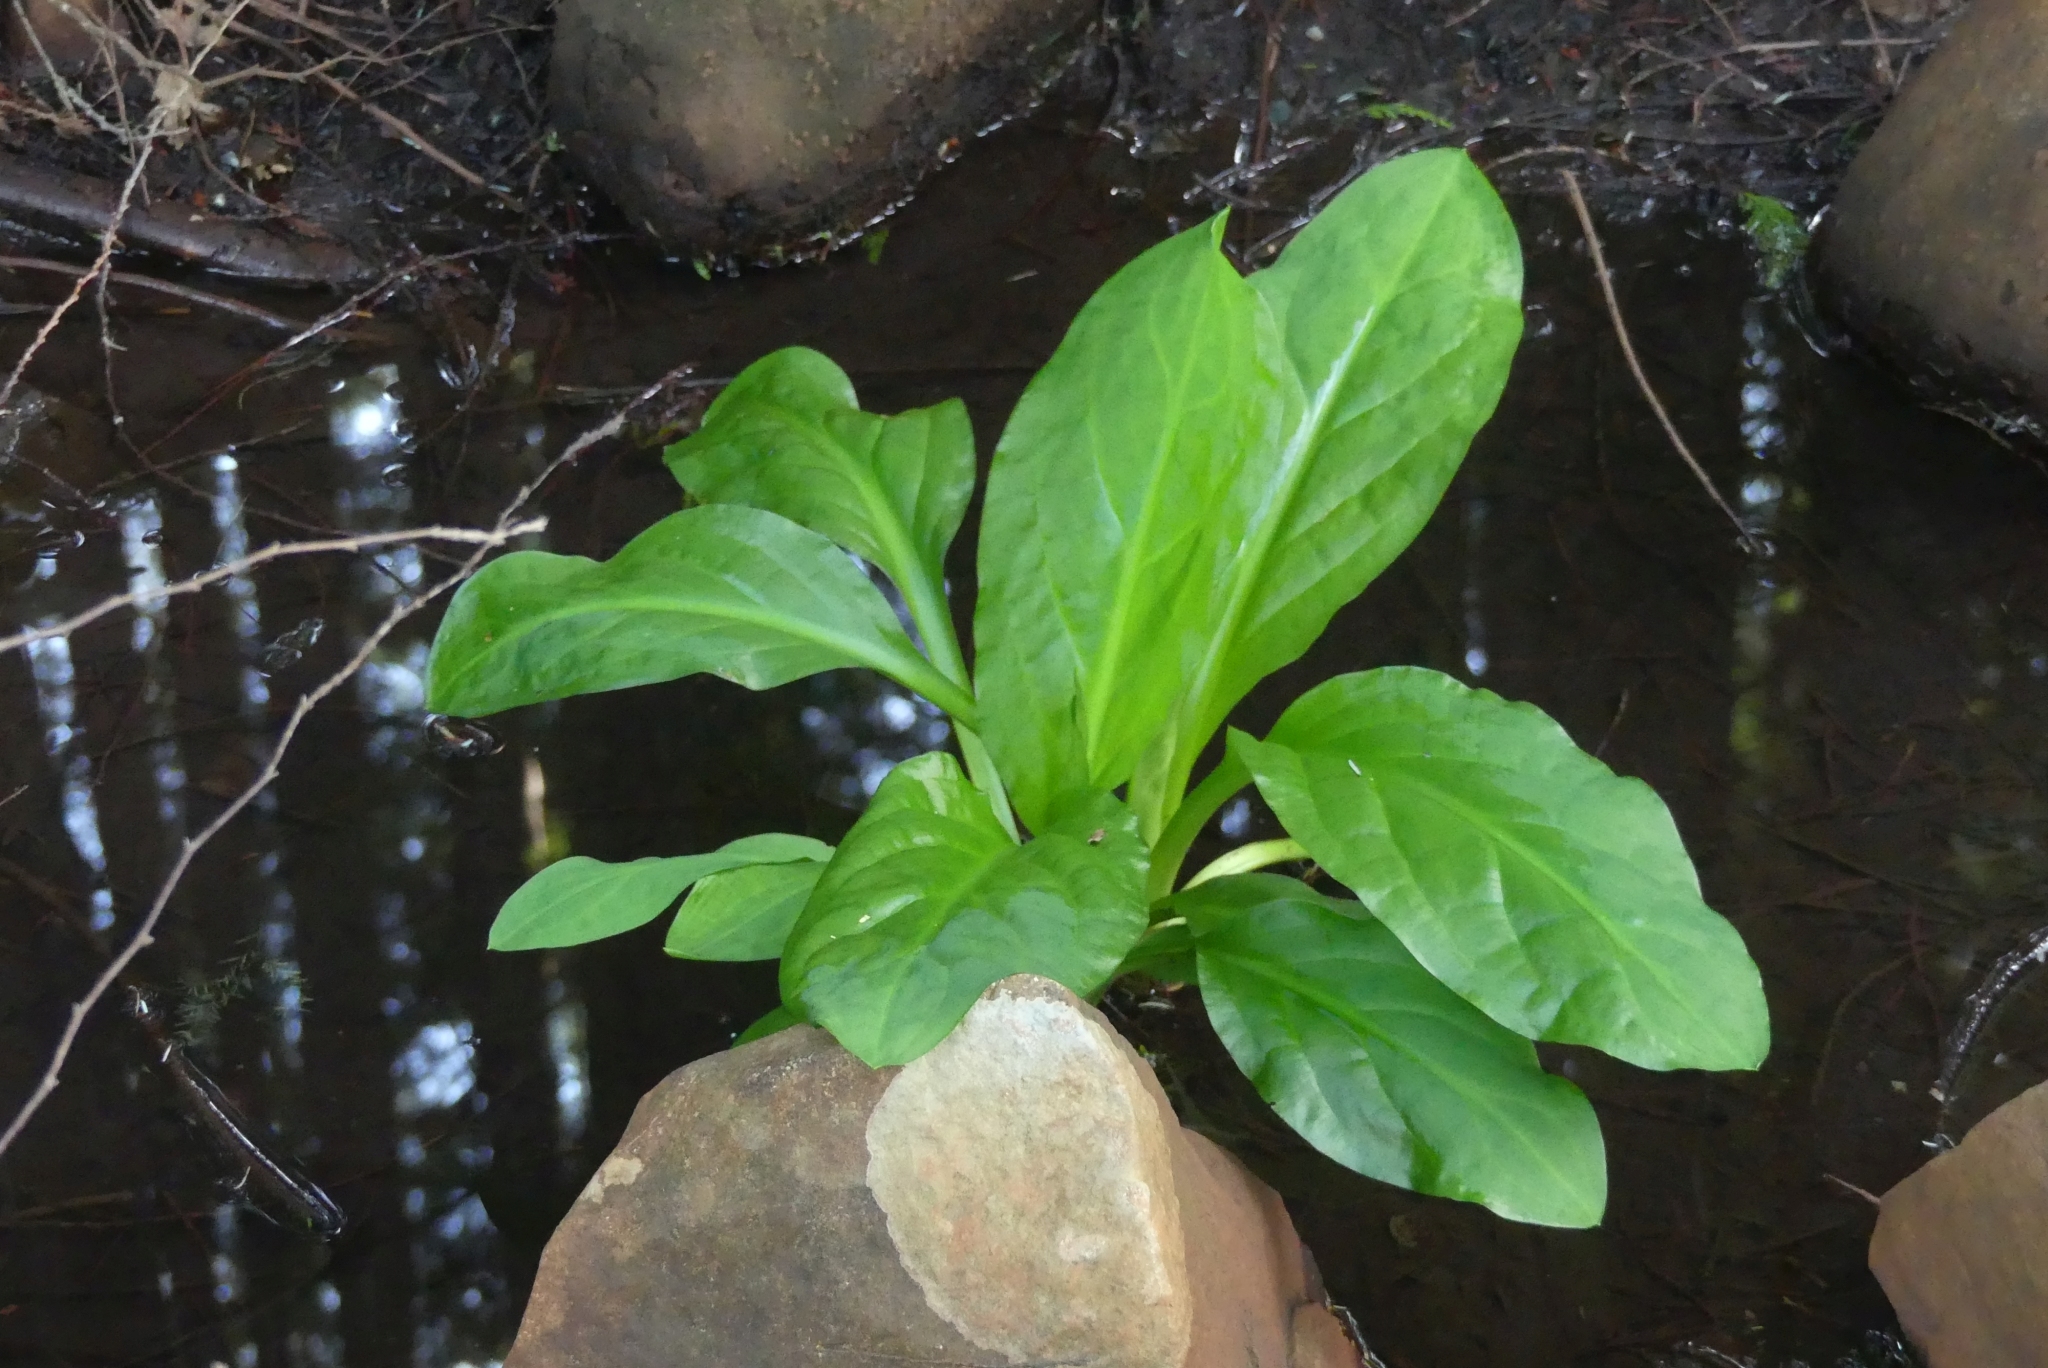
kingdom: Plantae
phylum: Tracheophyta
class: Liliopsida
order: Alismatales
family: Araceae
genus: Lysichiton
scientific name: Lysichiton americanus
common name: American skunk cabbage
